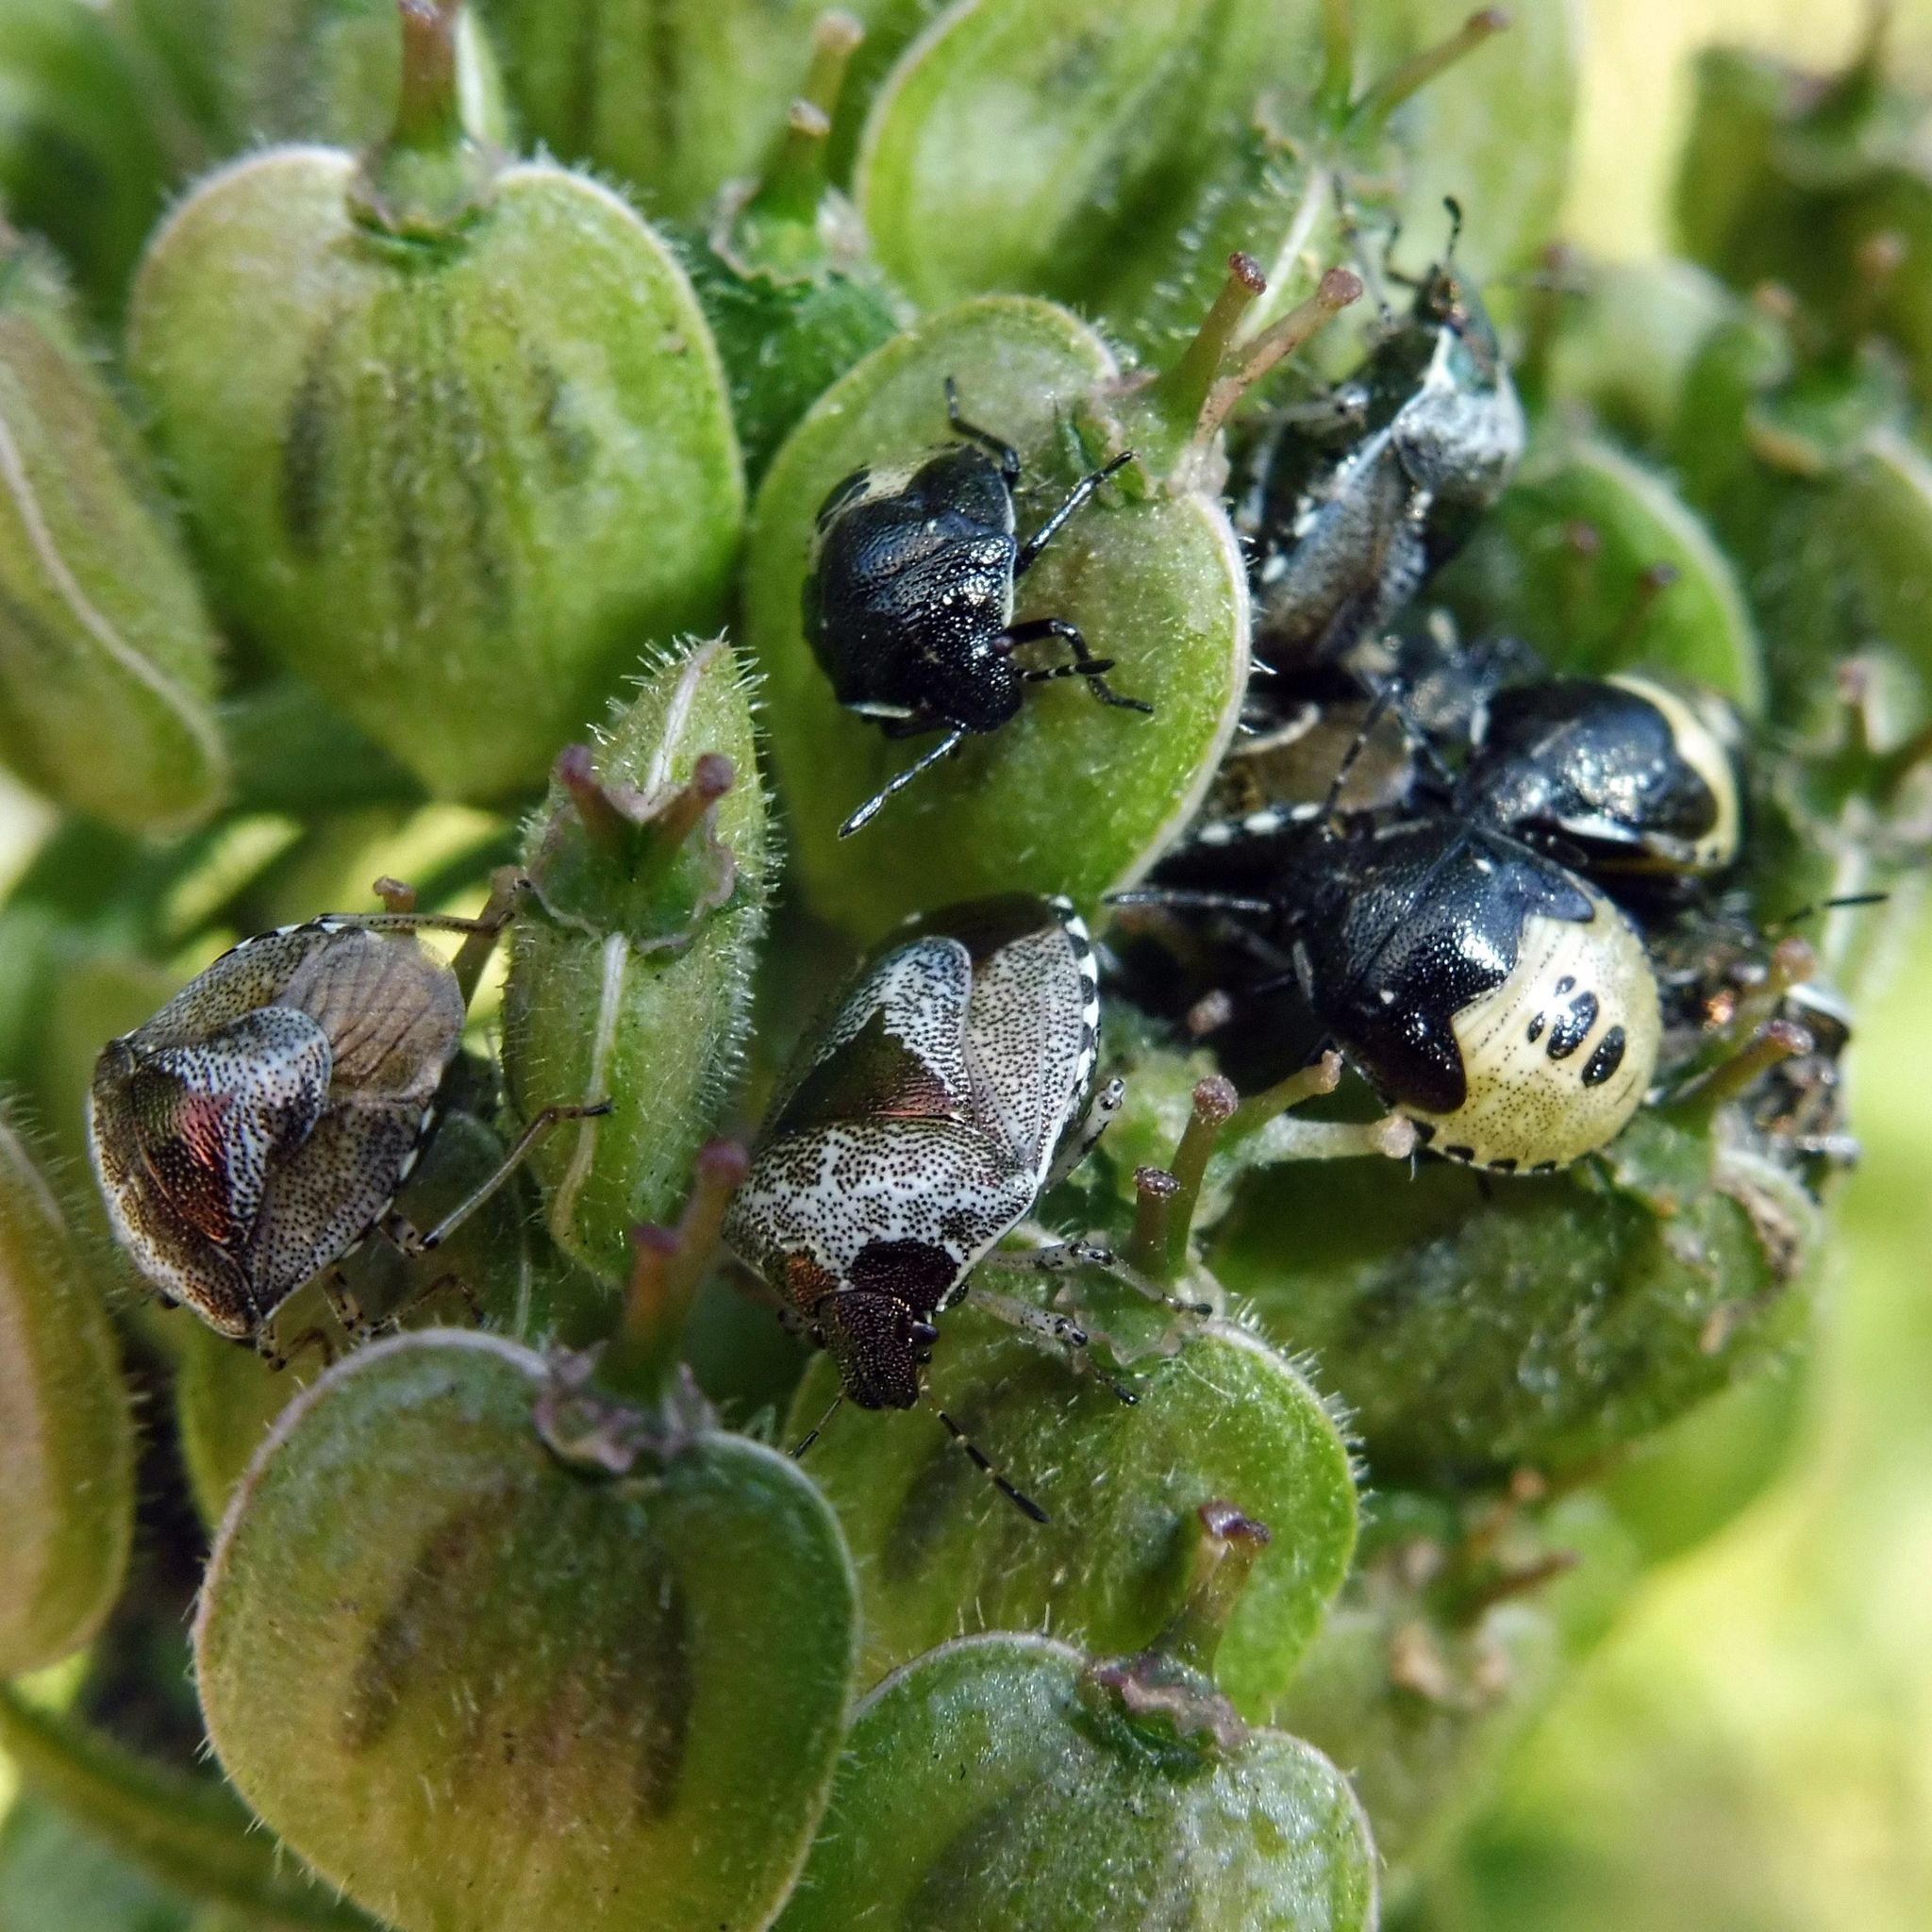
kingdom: Animalia
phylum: Arthropoda
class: Insecta
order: Hemiptera
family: Pentatomidae
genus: Eysarcoris
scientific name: Eysarcoris venustissimus
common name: Woundwort shieldbug
